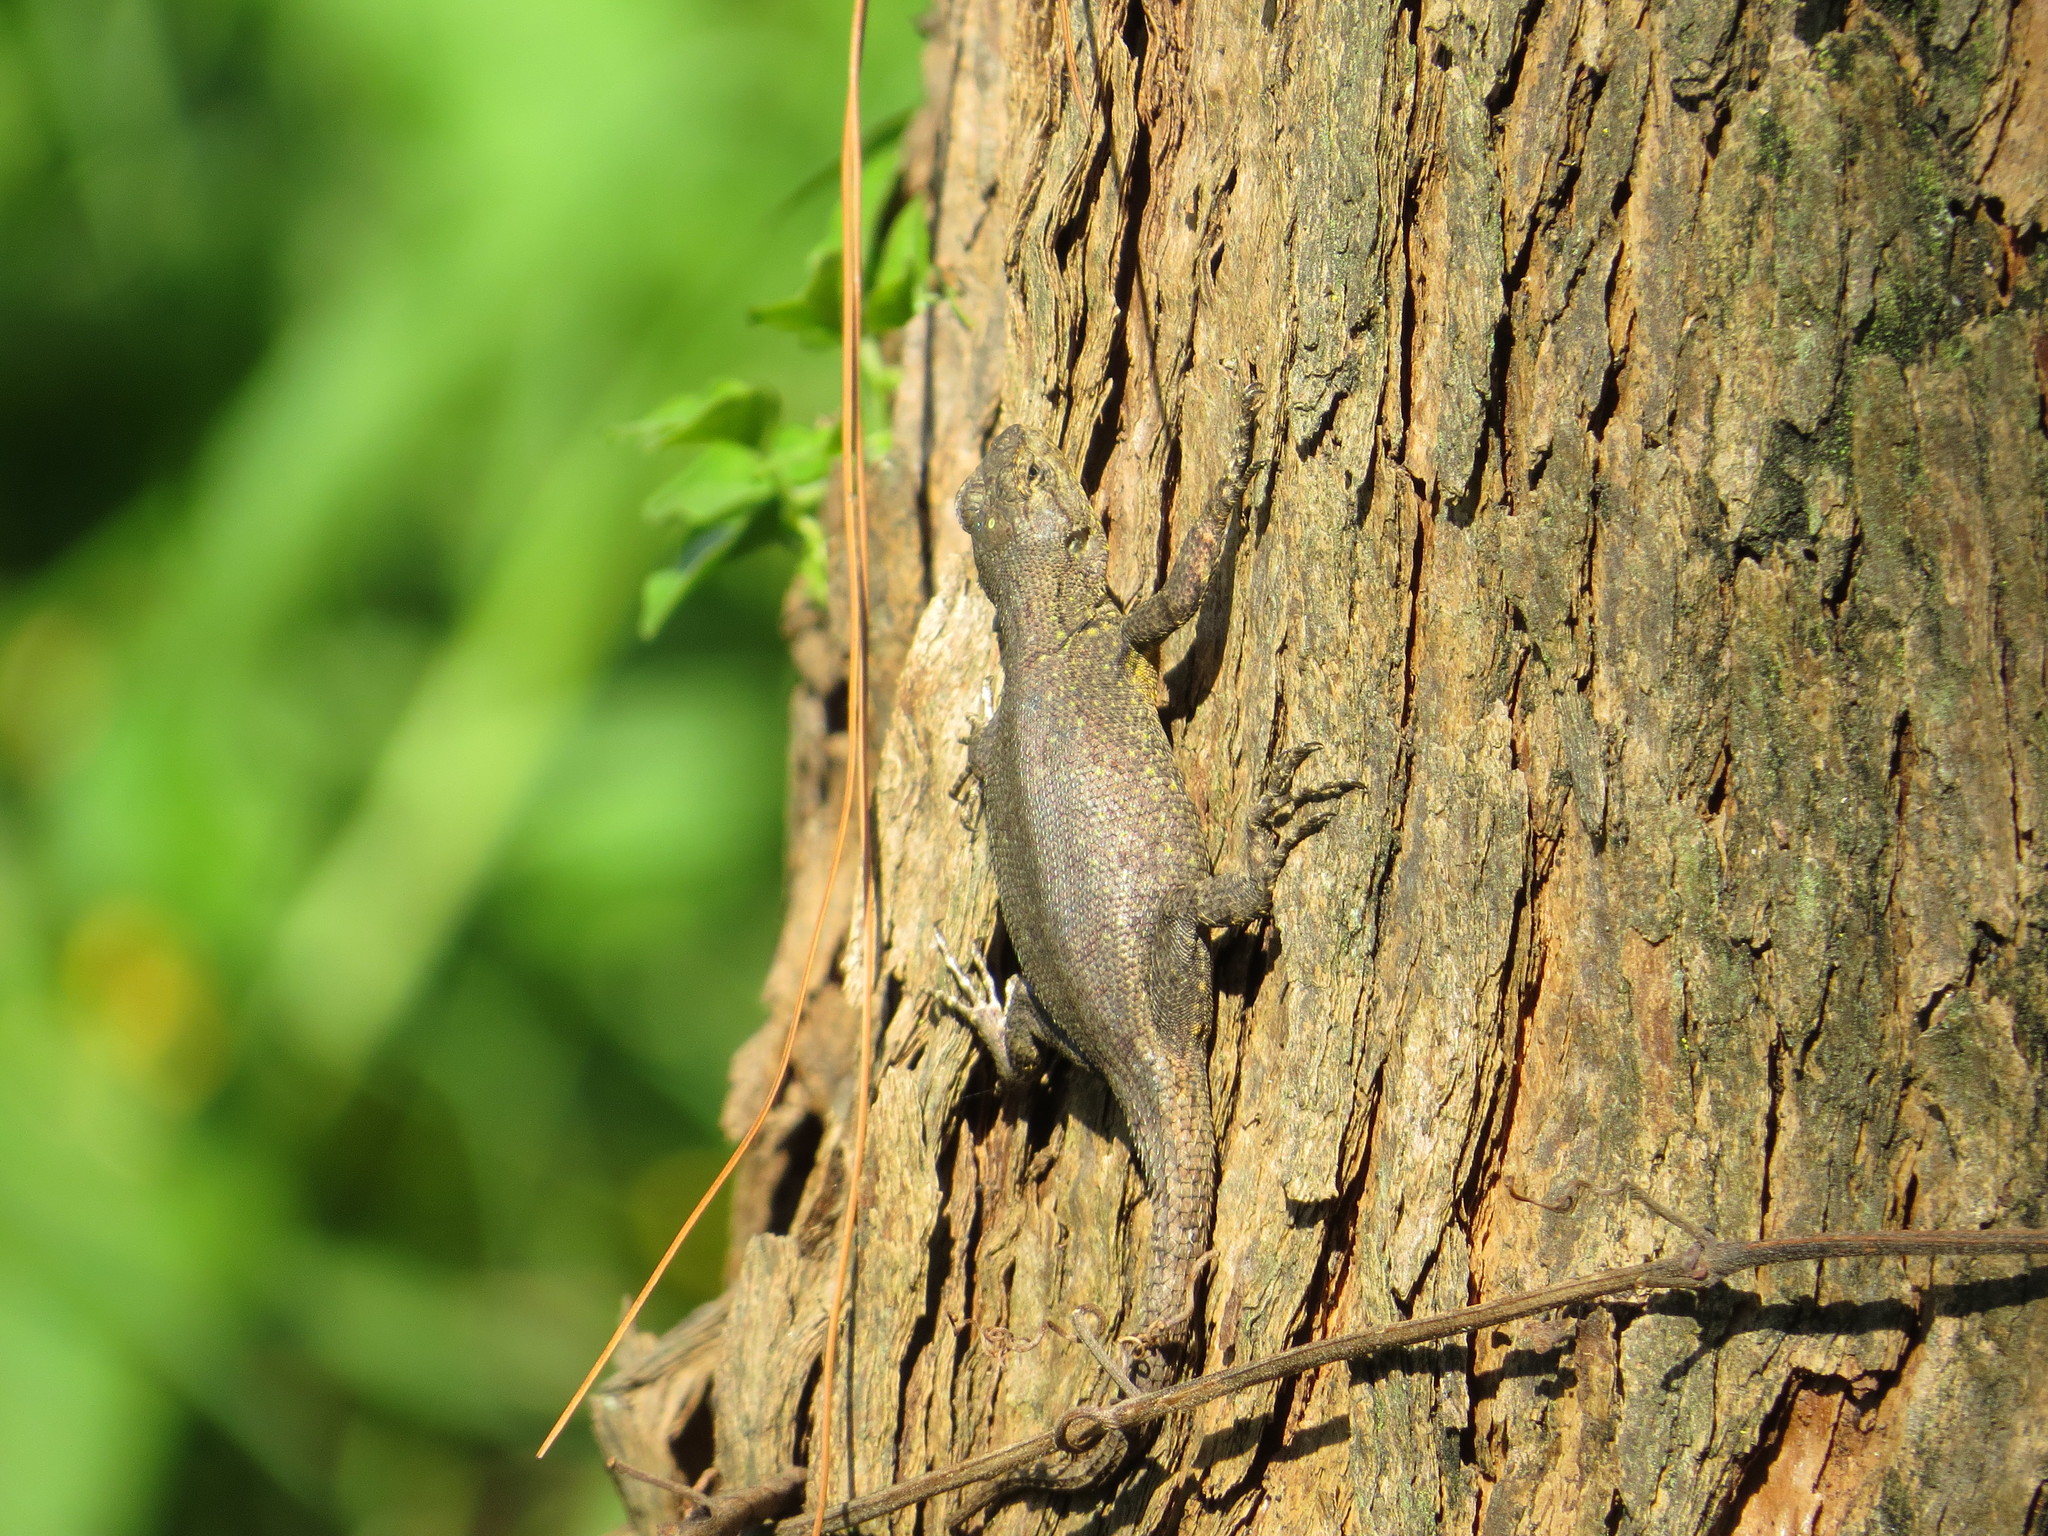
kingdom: Animalia
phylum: Chordata
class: Squamata
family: Phrynosomatidae
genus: Sceloporus
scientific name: Sceloporus grammicus
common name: Mesquite lizard
